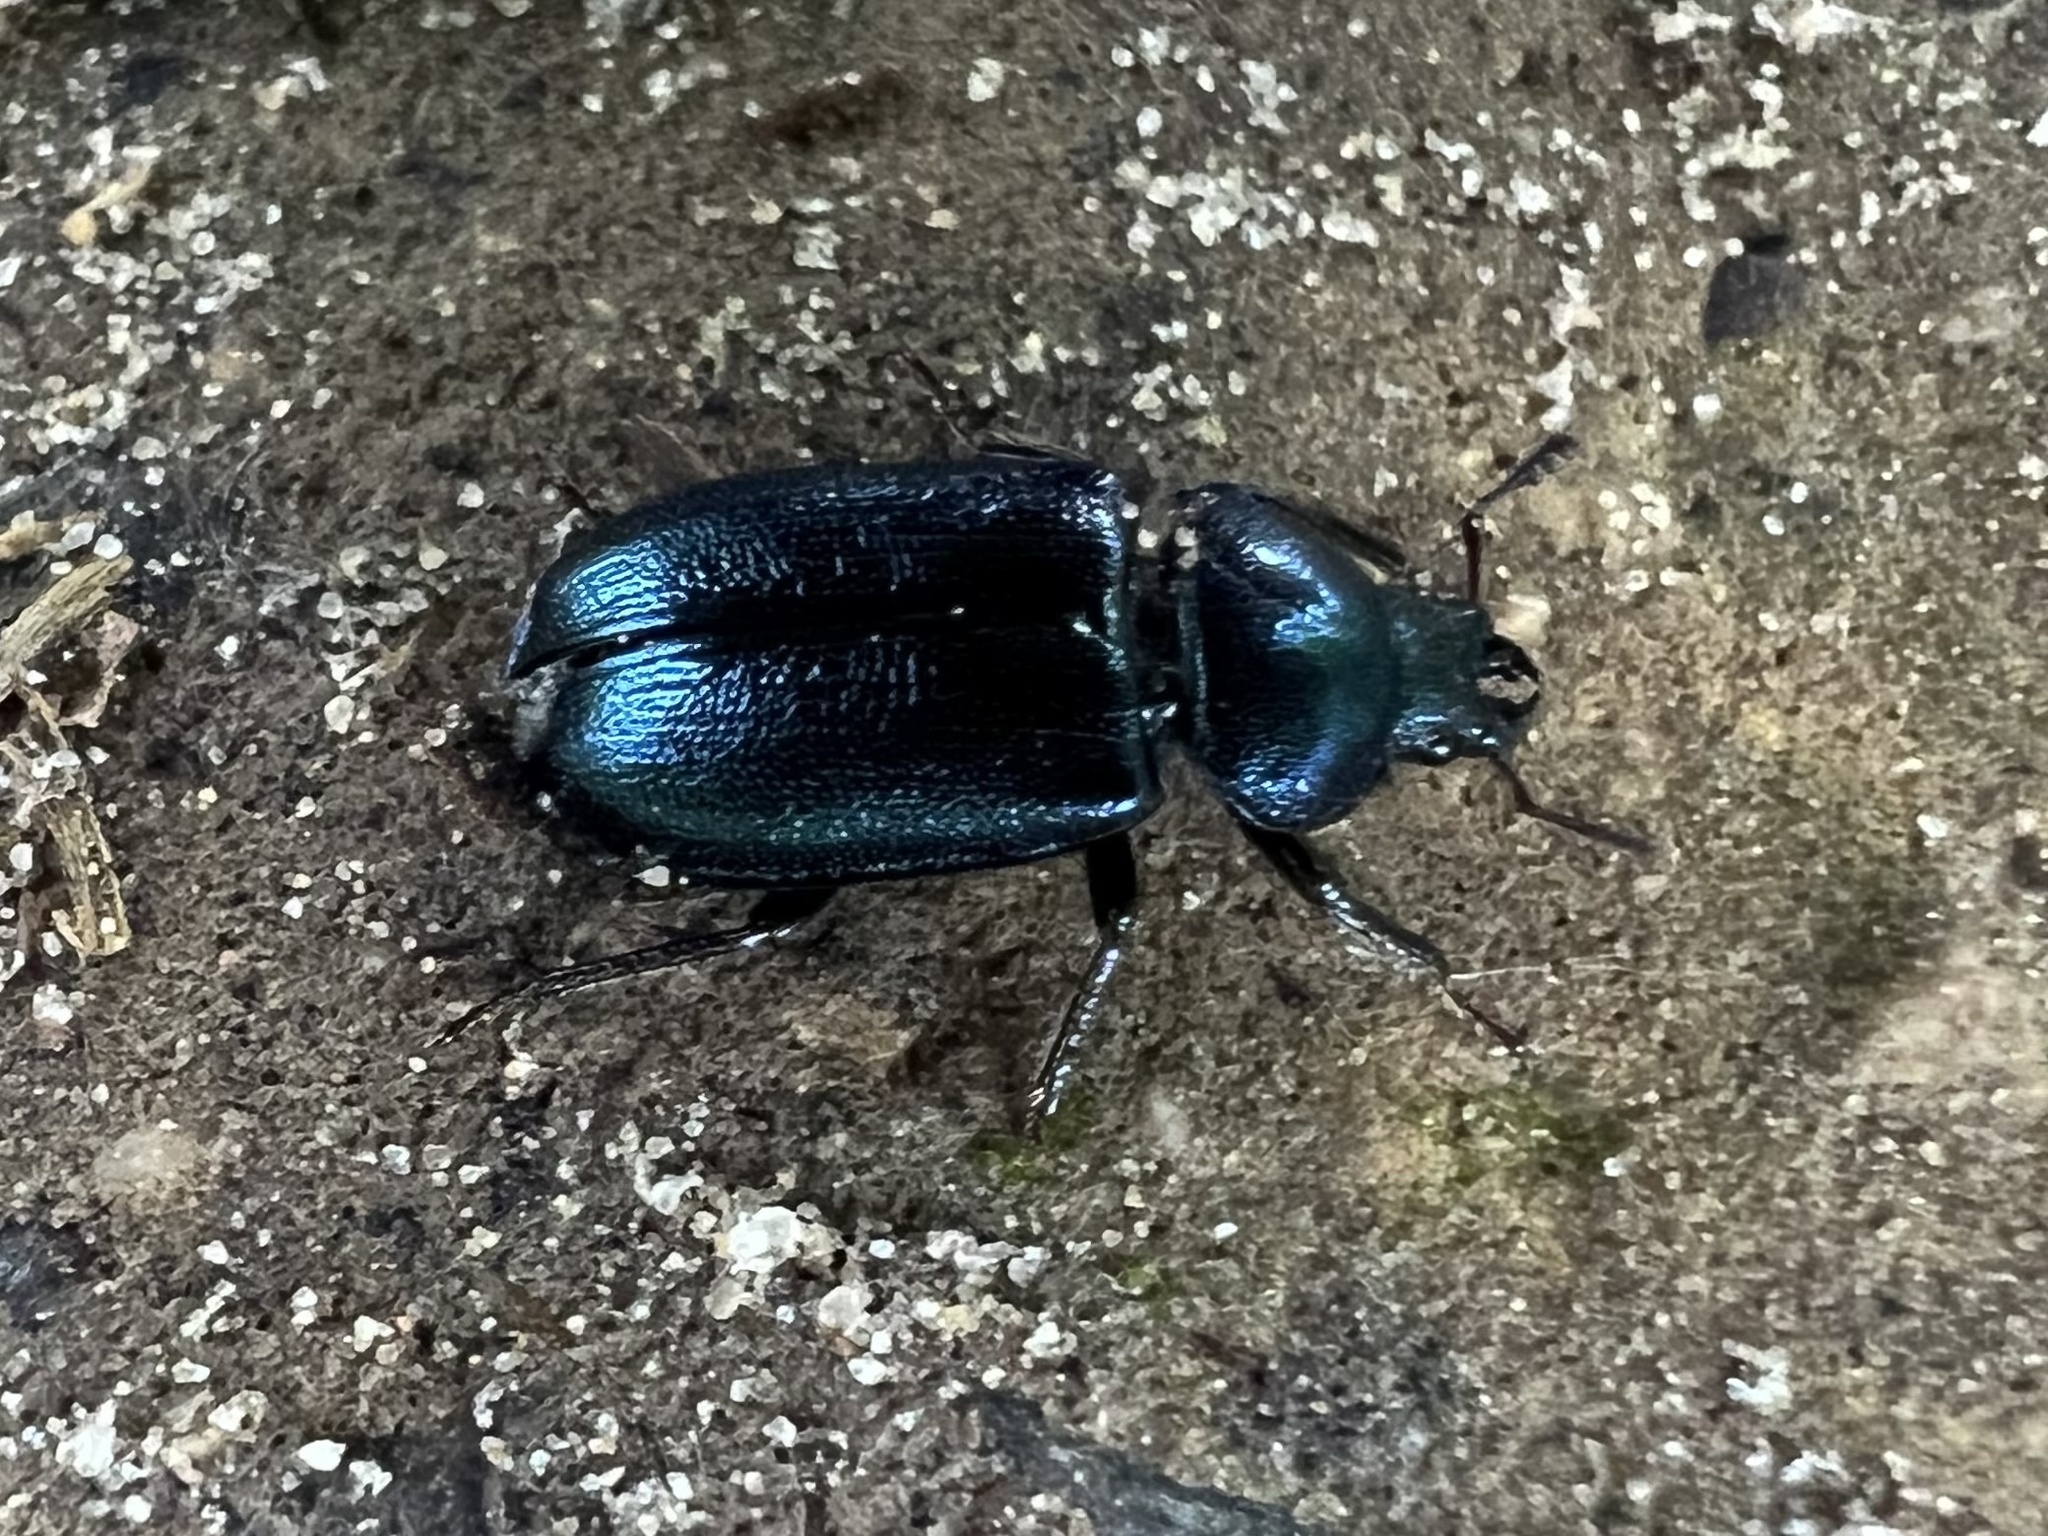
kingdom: Animalia
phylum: Arthropoda
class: Insecta
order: Coleoptera
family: Lucanidae
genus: Platycerus
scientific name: Platycerus caraboides
